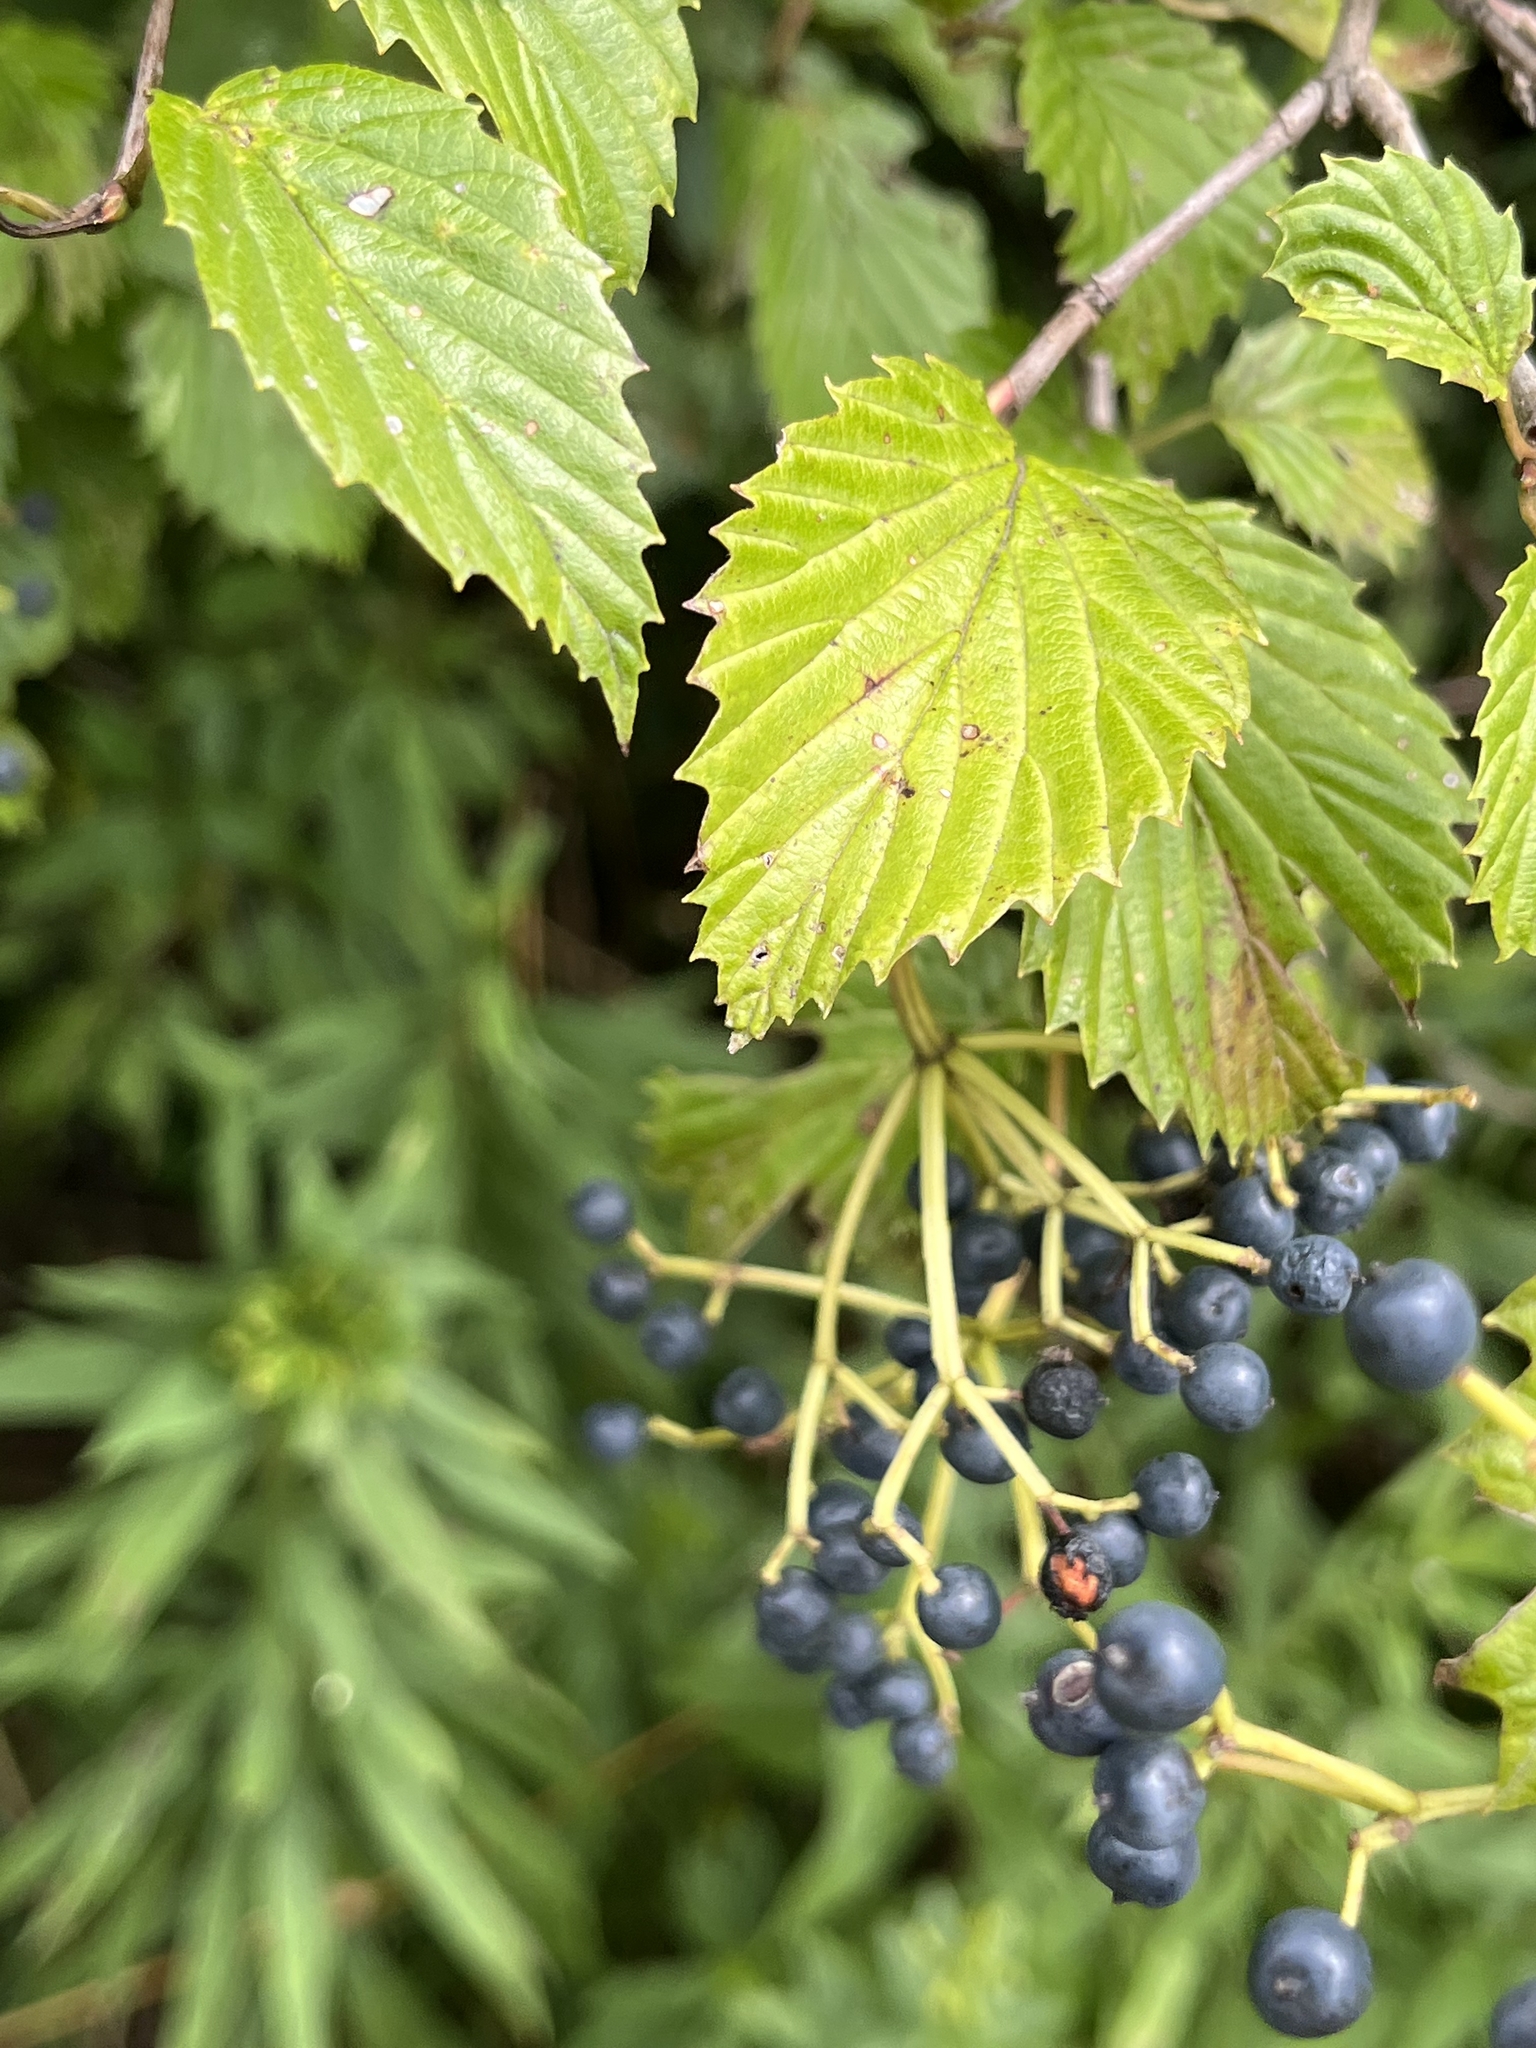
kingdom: Plantae
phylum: Tracheophyta
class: Magnoliopsida
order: Dipsacales
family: Viburnaceae
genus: Viburnum
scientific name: Viburnum recognitum
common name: Northern arrow-wood
